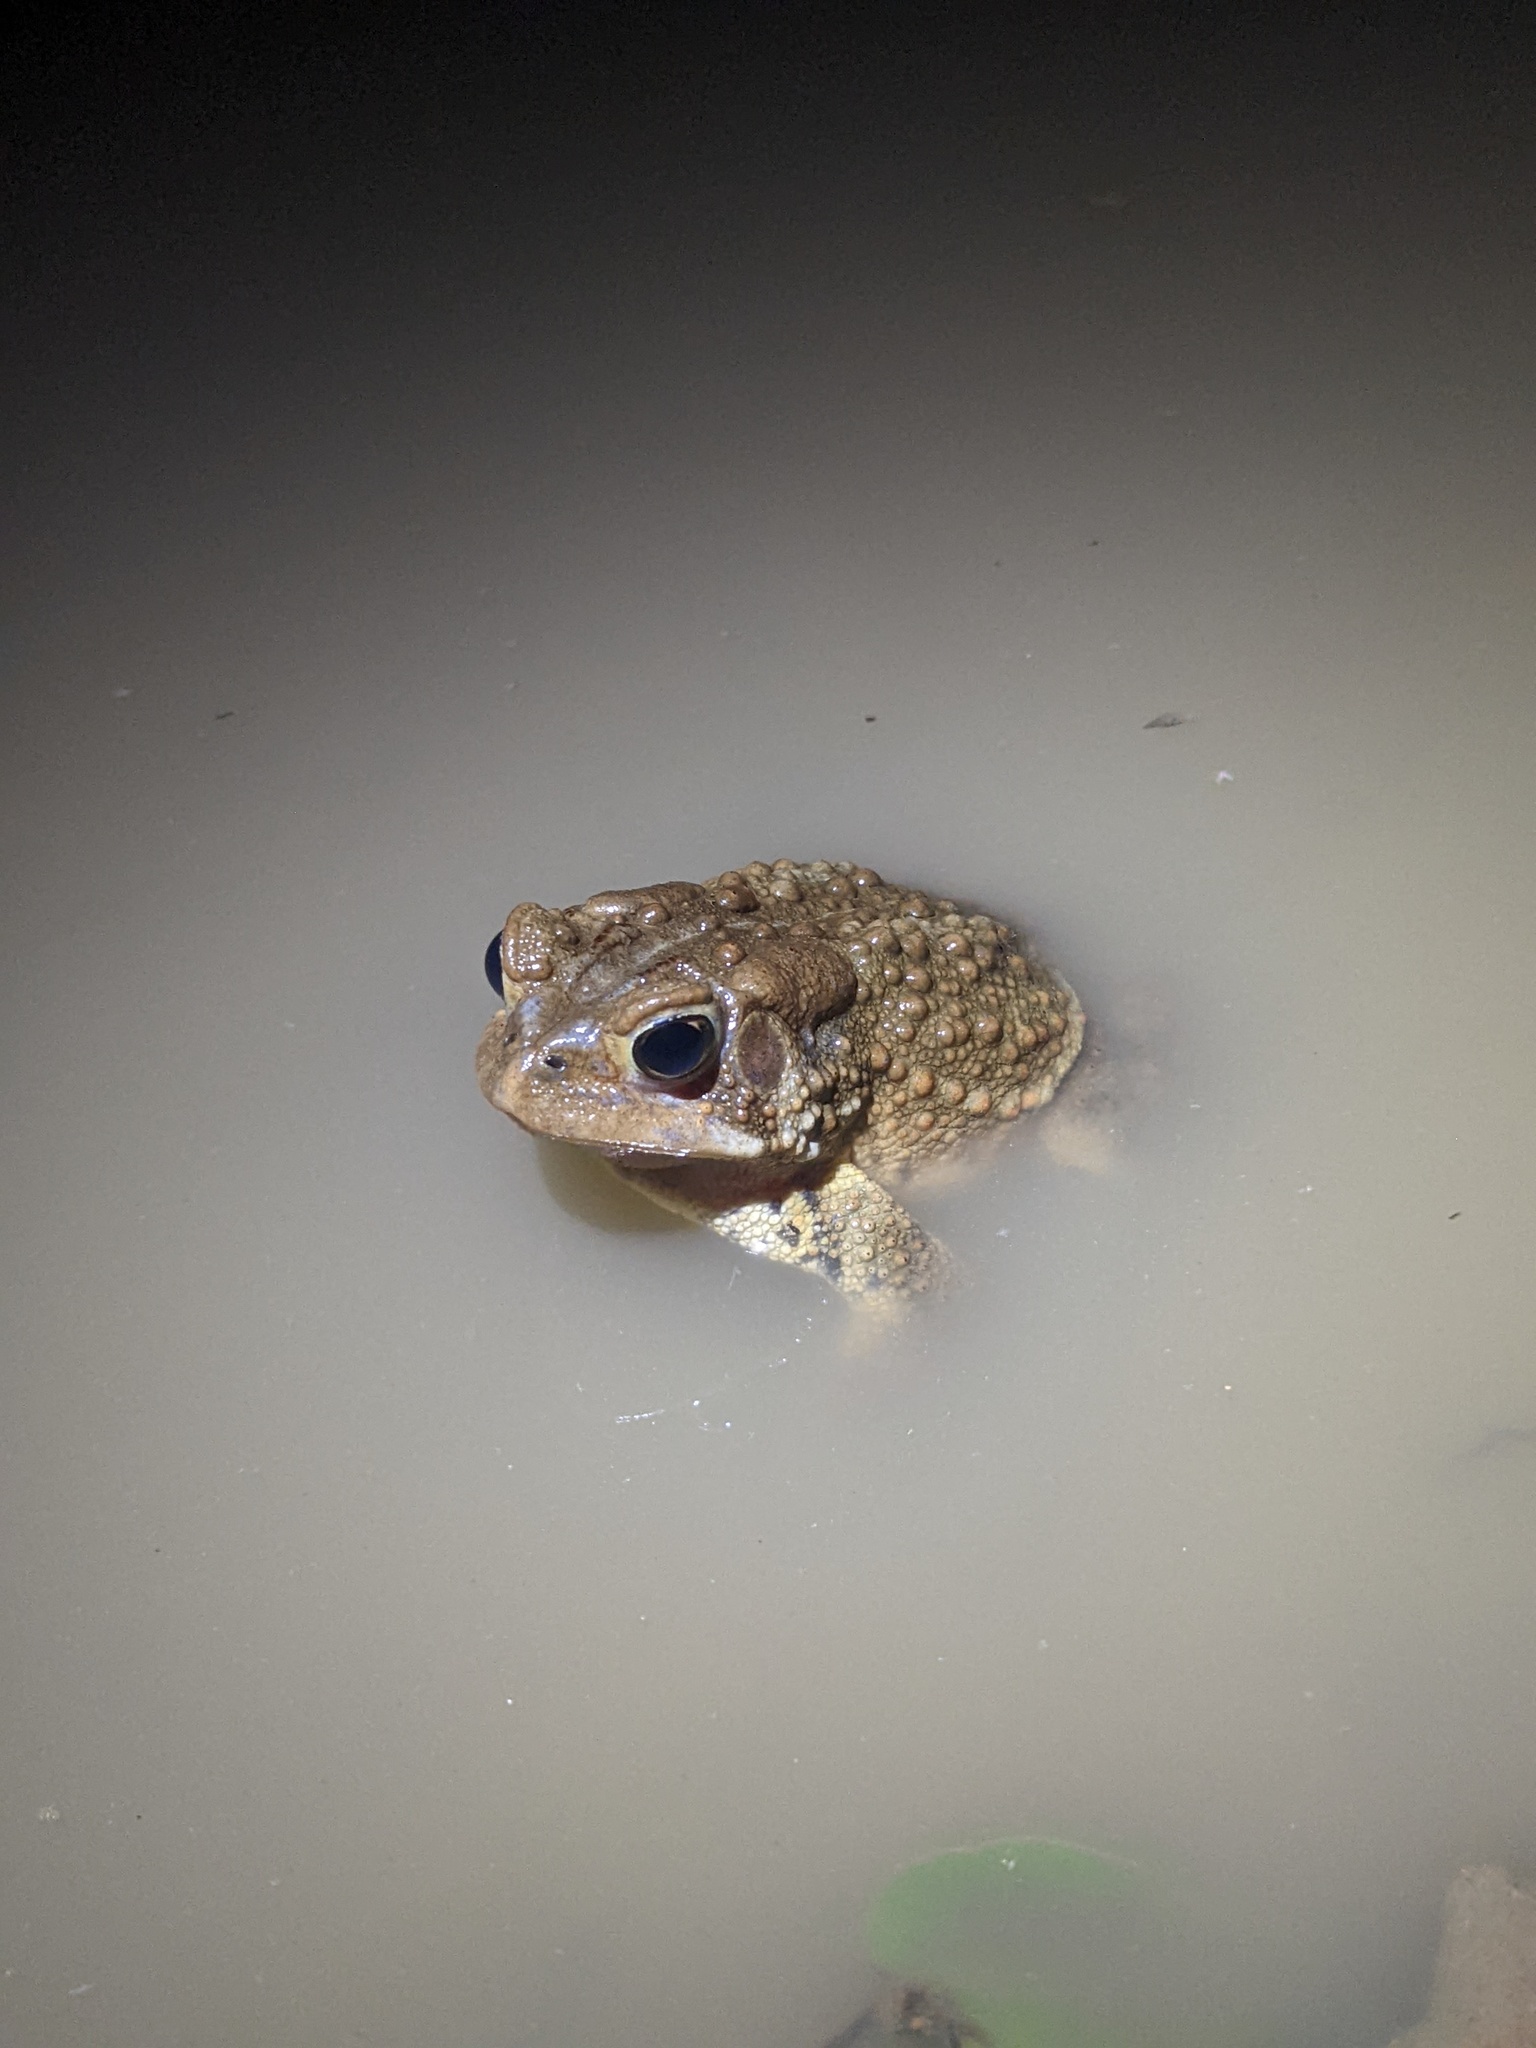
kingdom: Animalia
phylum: Chordata
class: Amphibia
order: Anura
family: Bufonidae
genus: Anaxyrus
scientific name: Anaxyrus americanus
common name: American toad
